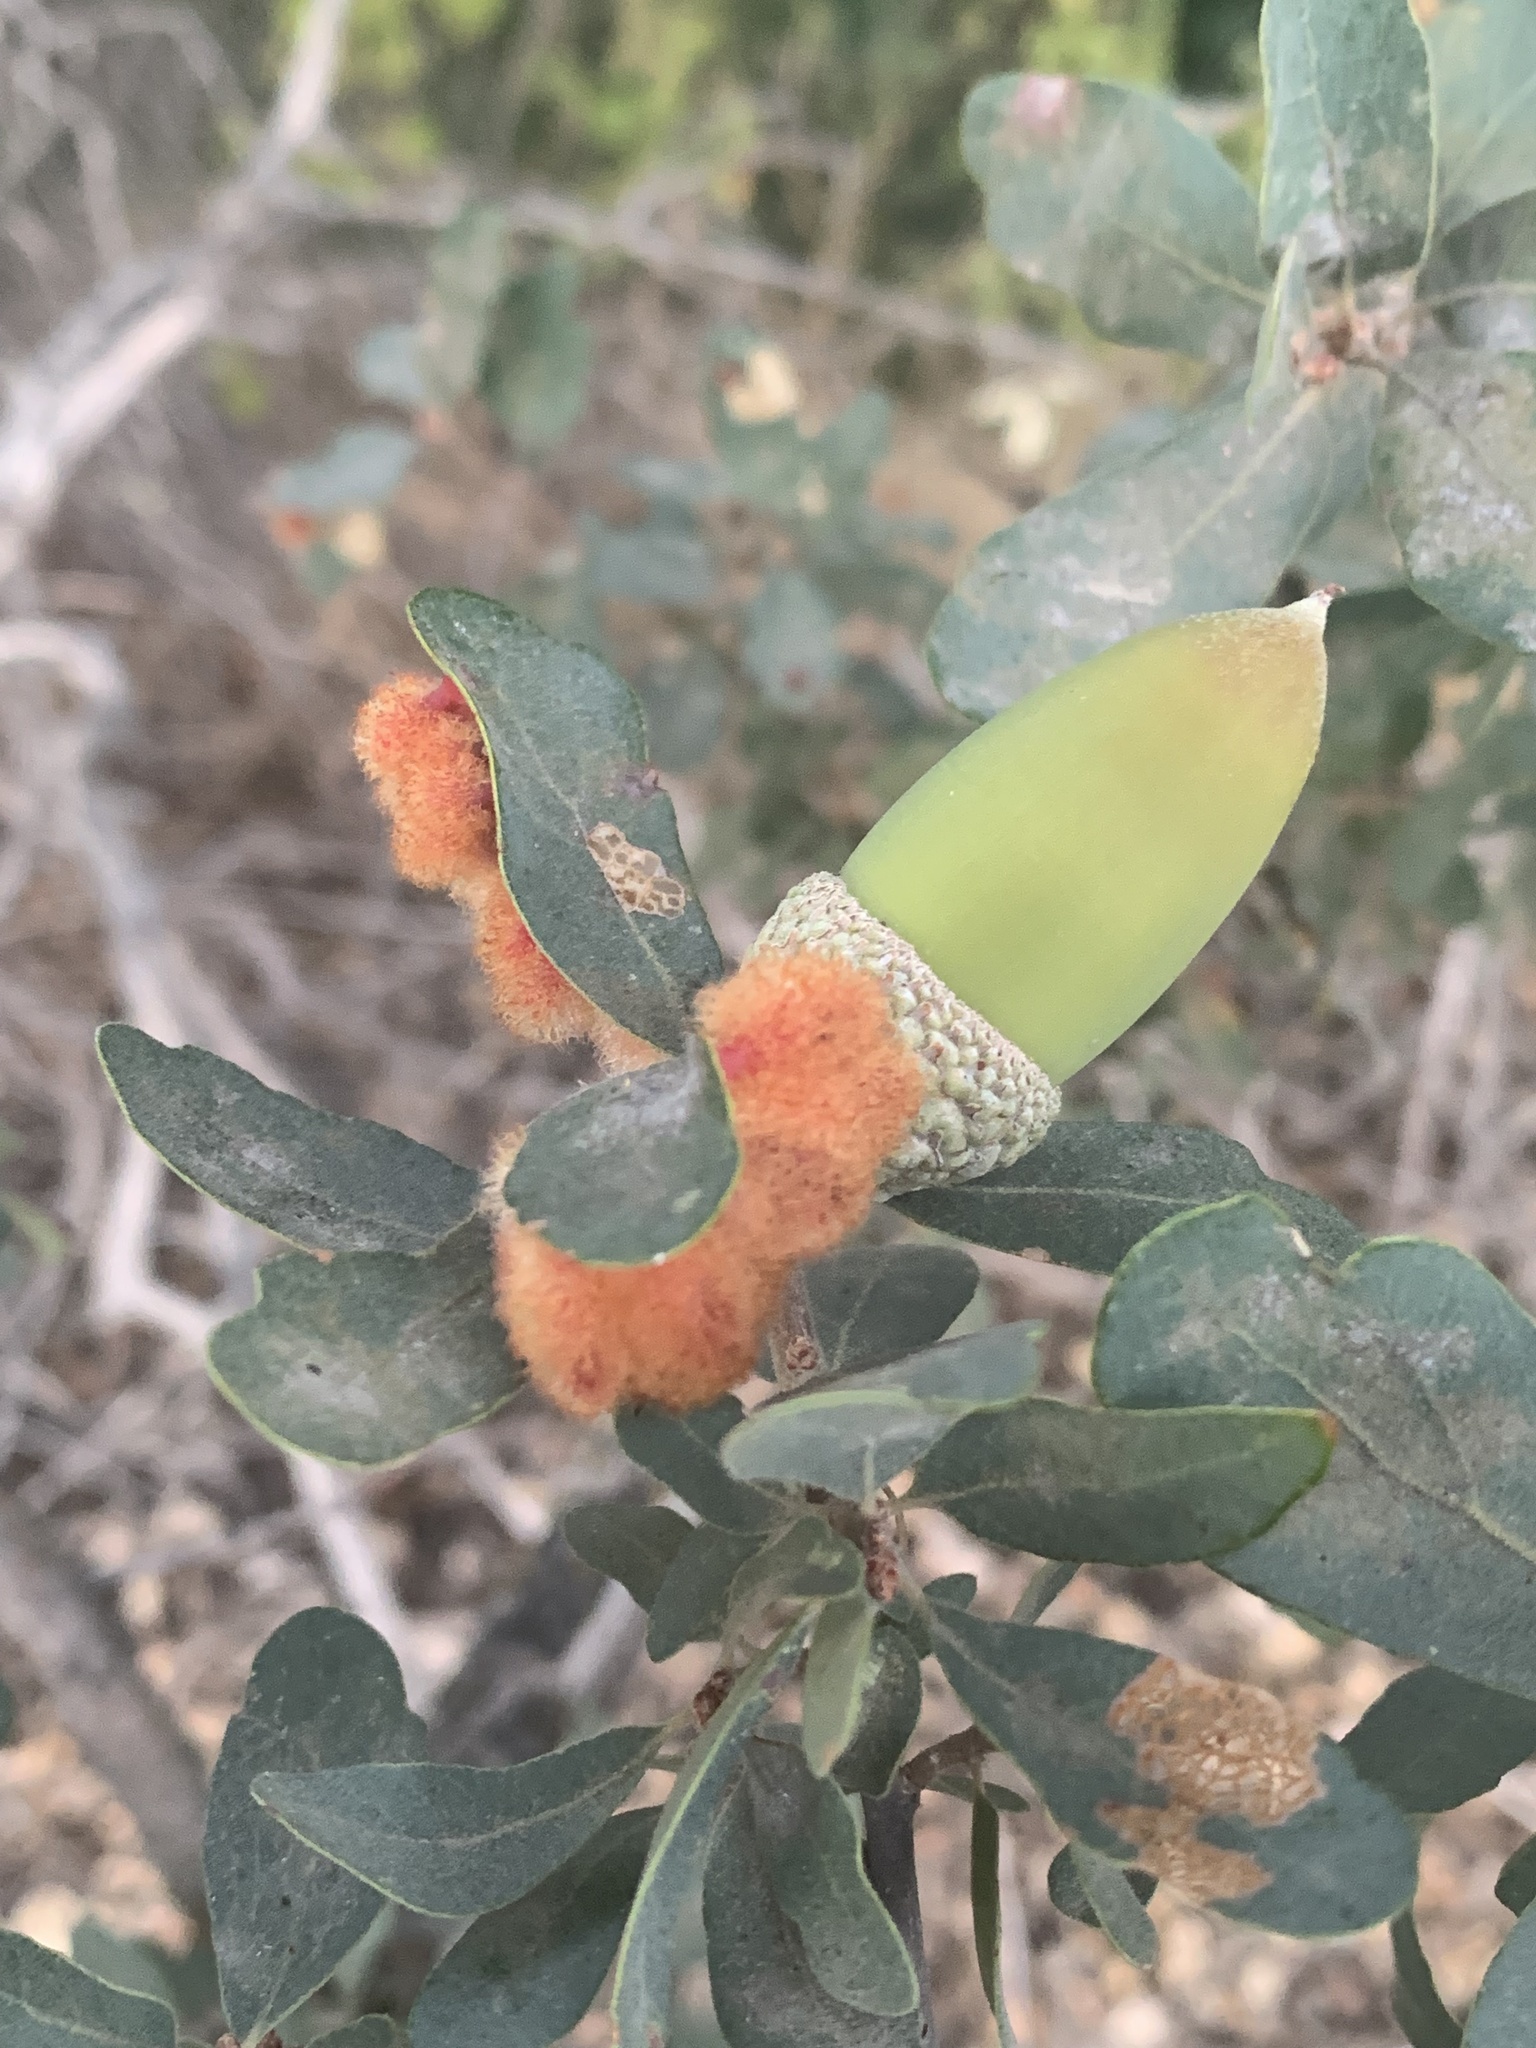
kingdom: Animalia
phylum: Arthropoda
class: Insecta
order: Hymenoptera
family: Cynipidae
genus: Andricus
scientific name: Andricus
